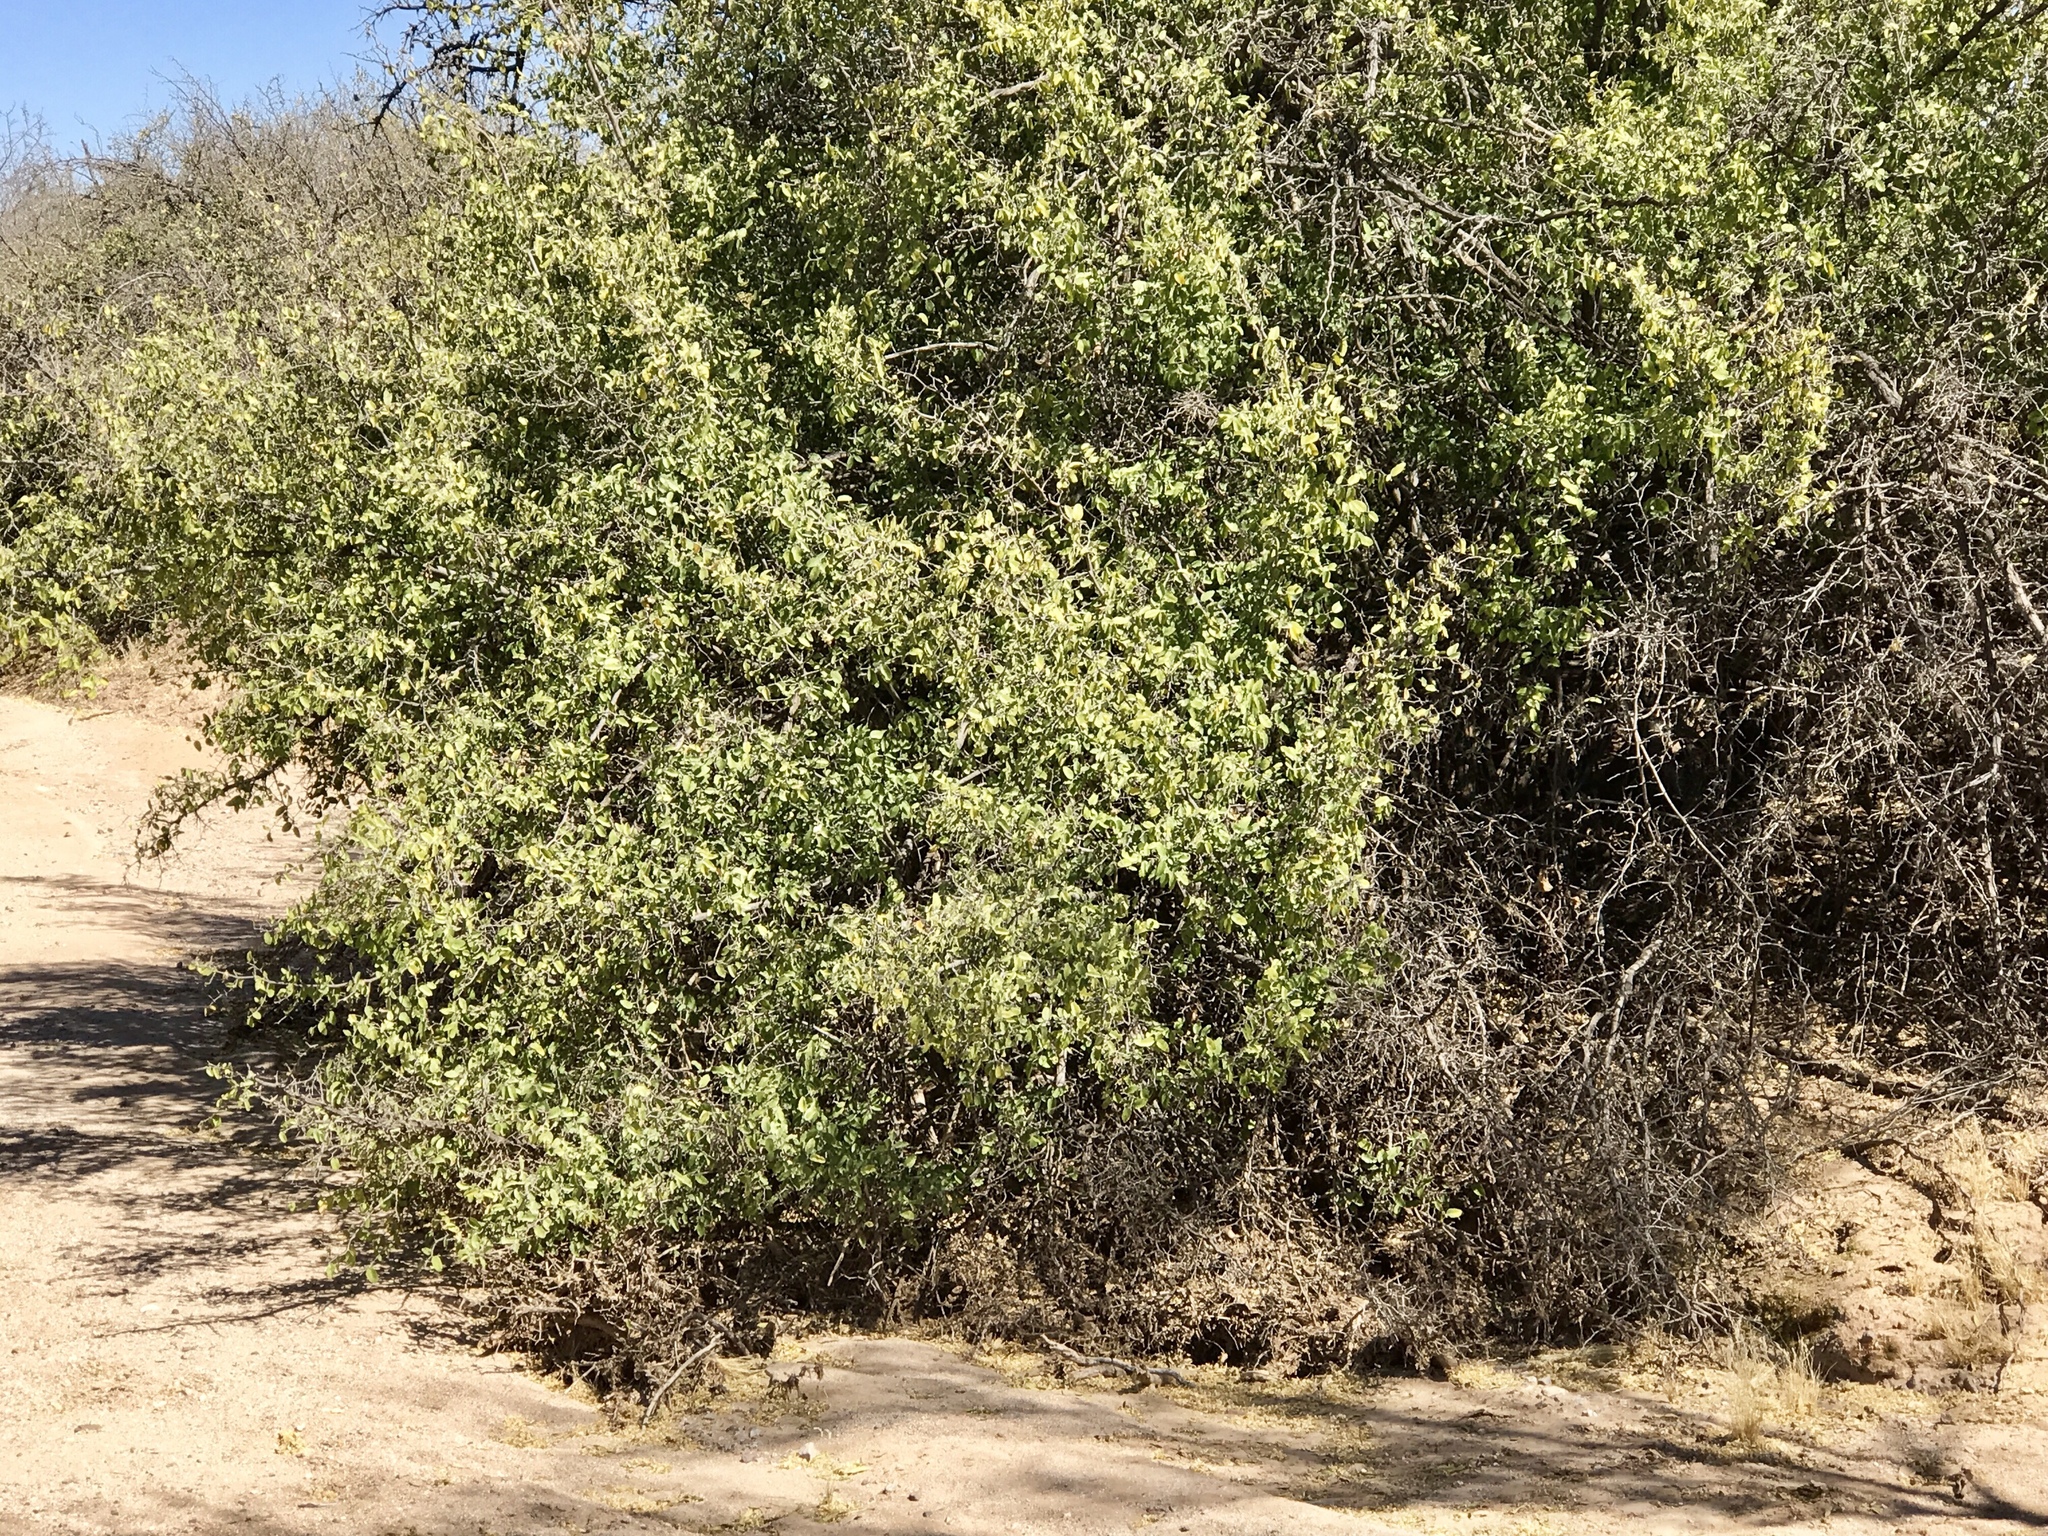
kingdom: Plantae
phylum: Tracheophyta
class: Magnoliopsida
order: Rosales
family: Cannabaceae
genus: Celtis
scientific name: Celtis pallida
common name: Desert hackberry
